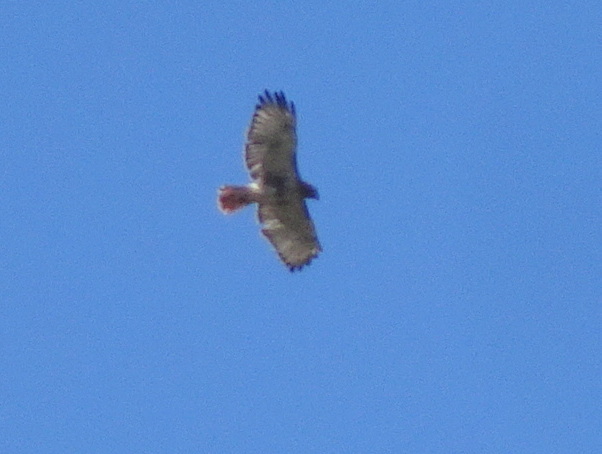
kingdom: Animalia
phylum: Chordata
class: Aves
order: Accipitriformes
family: Accipitridae
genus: Buteo
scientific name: Buteo jamaicensis
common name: Red-tailed hawk
